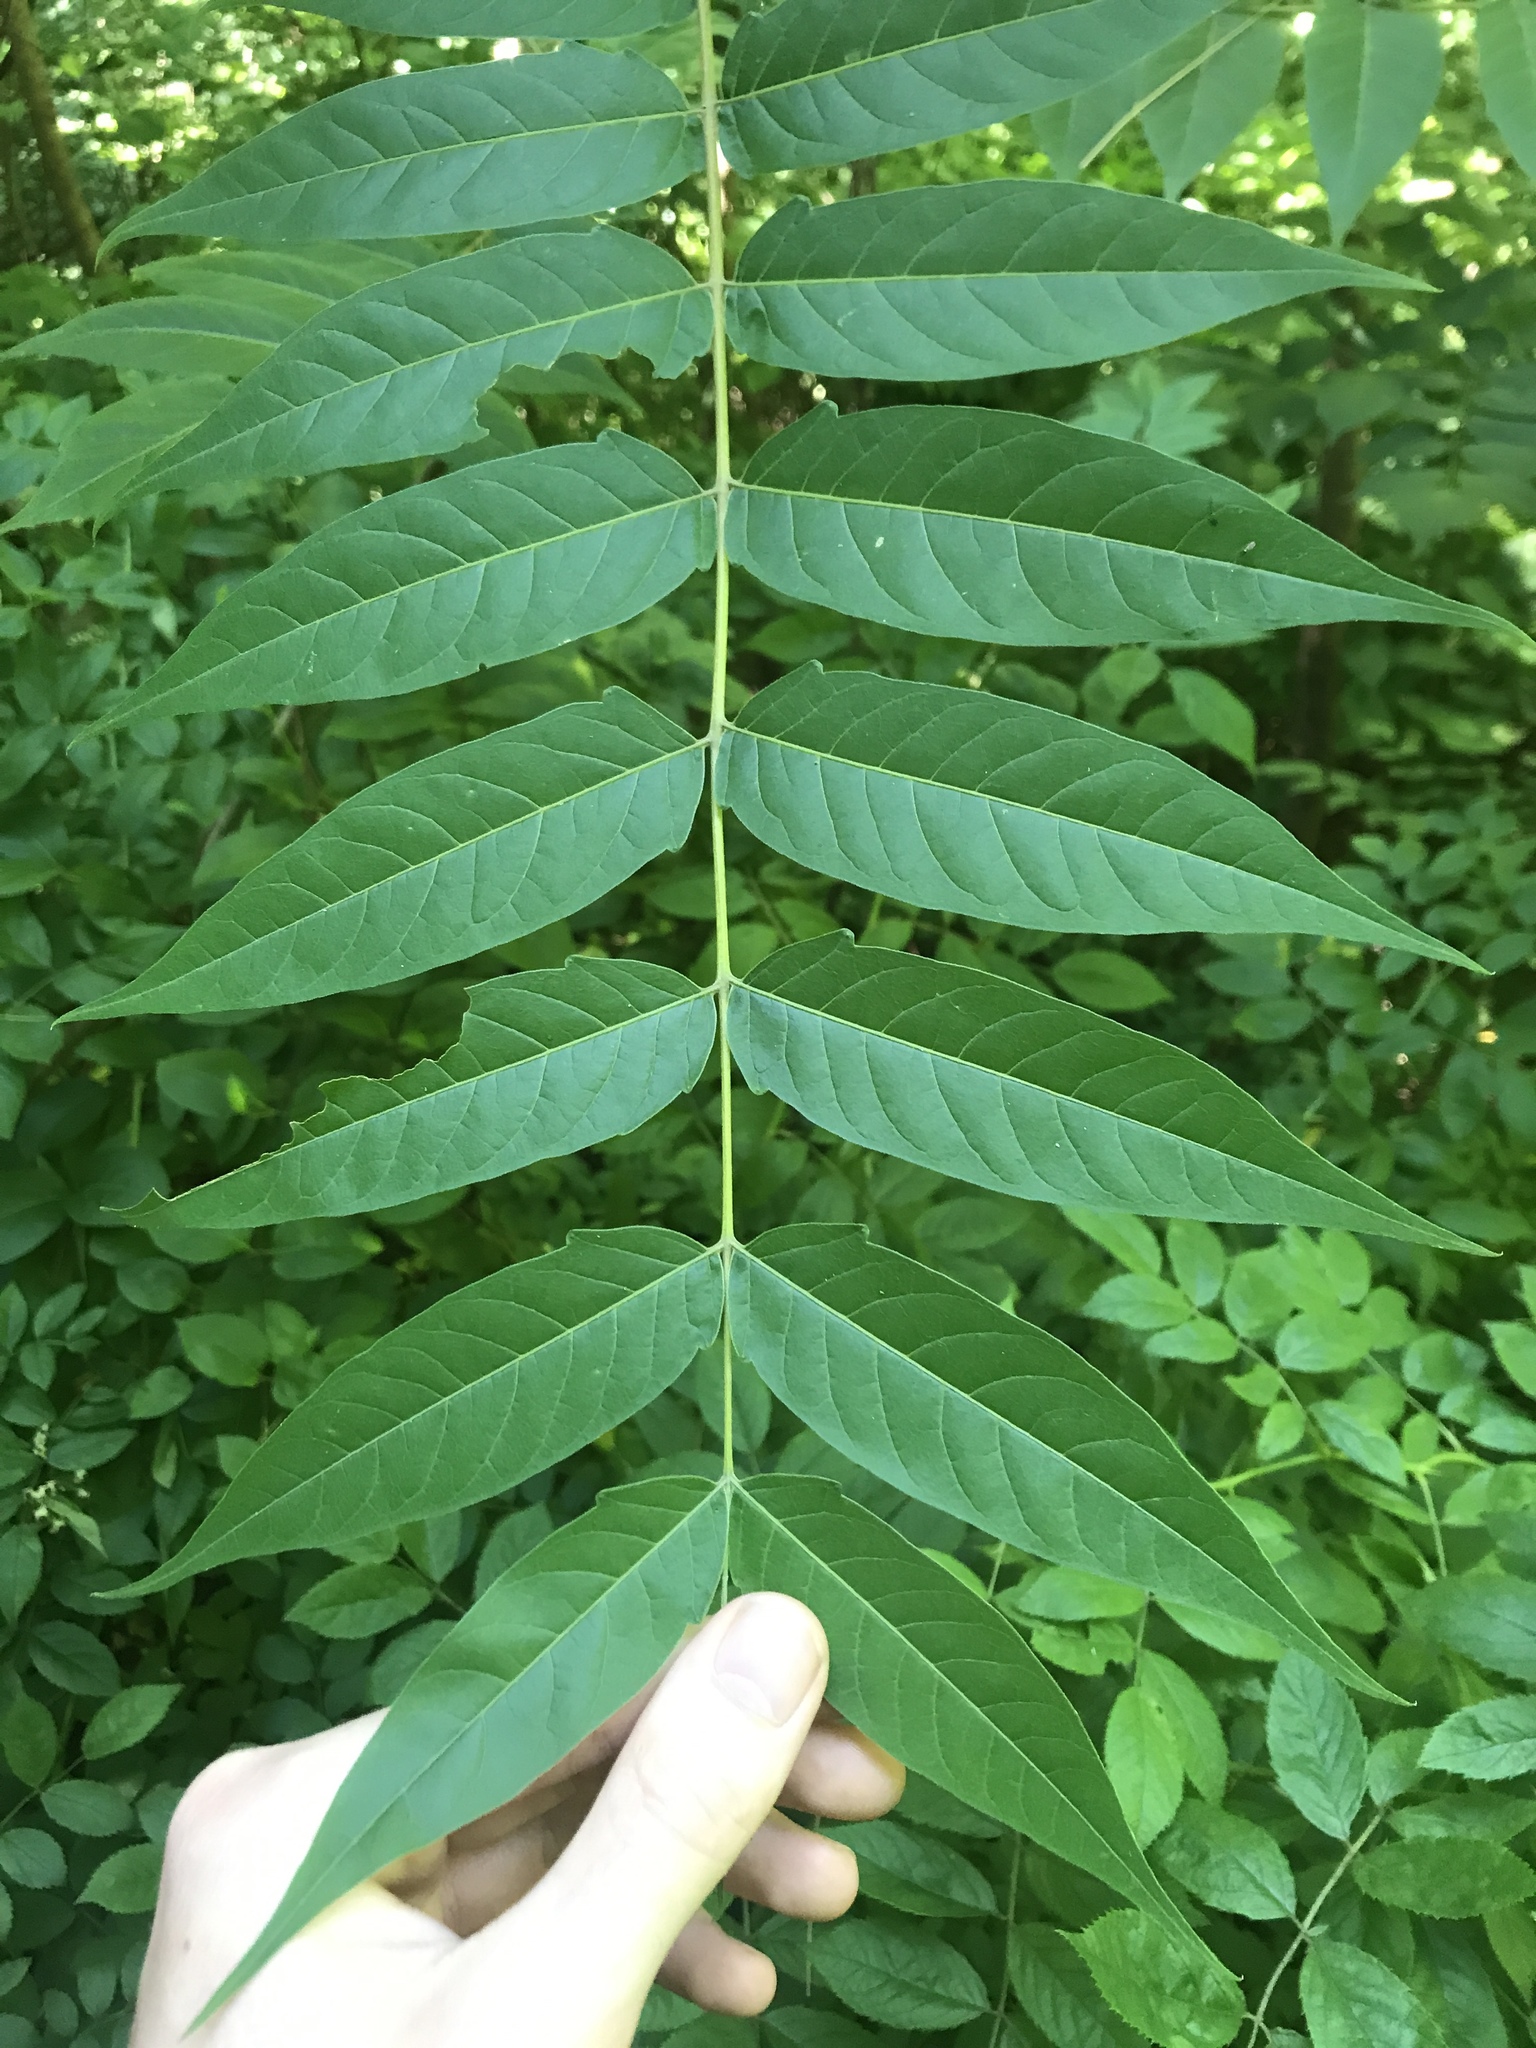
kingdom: Plantae
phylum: Tracheophyta
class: Magnoliopsida
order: Sapindales
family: Simaroubaceae
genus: Ailanthus
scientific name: Ailanthus altissima
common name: Tree-of-heaven
